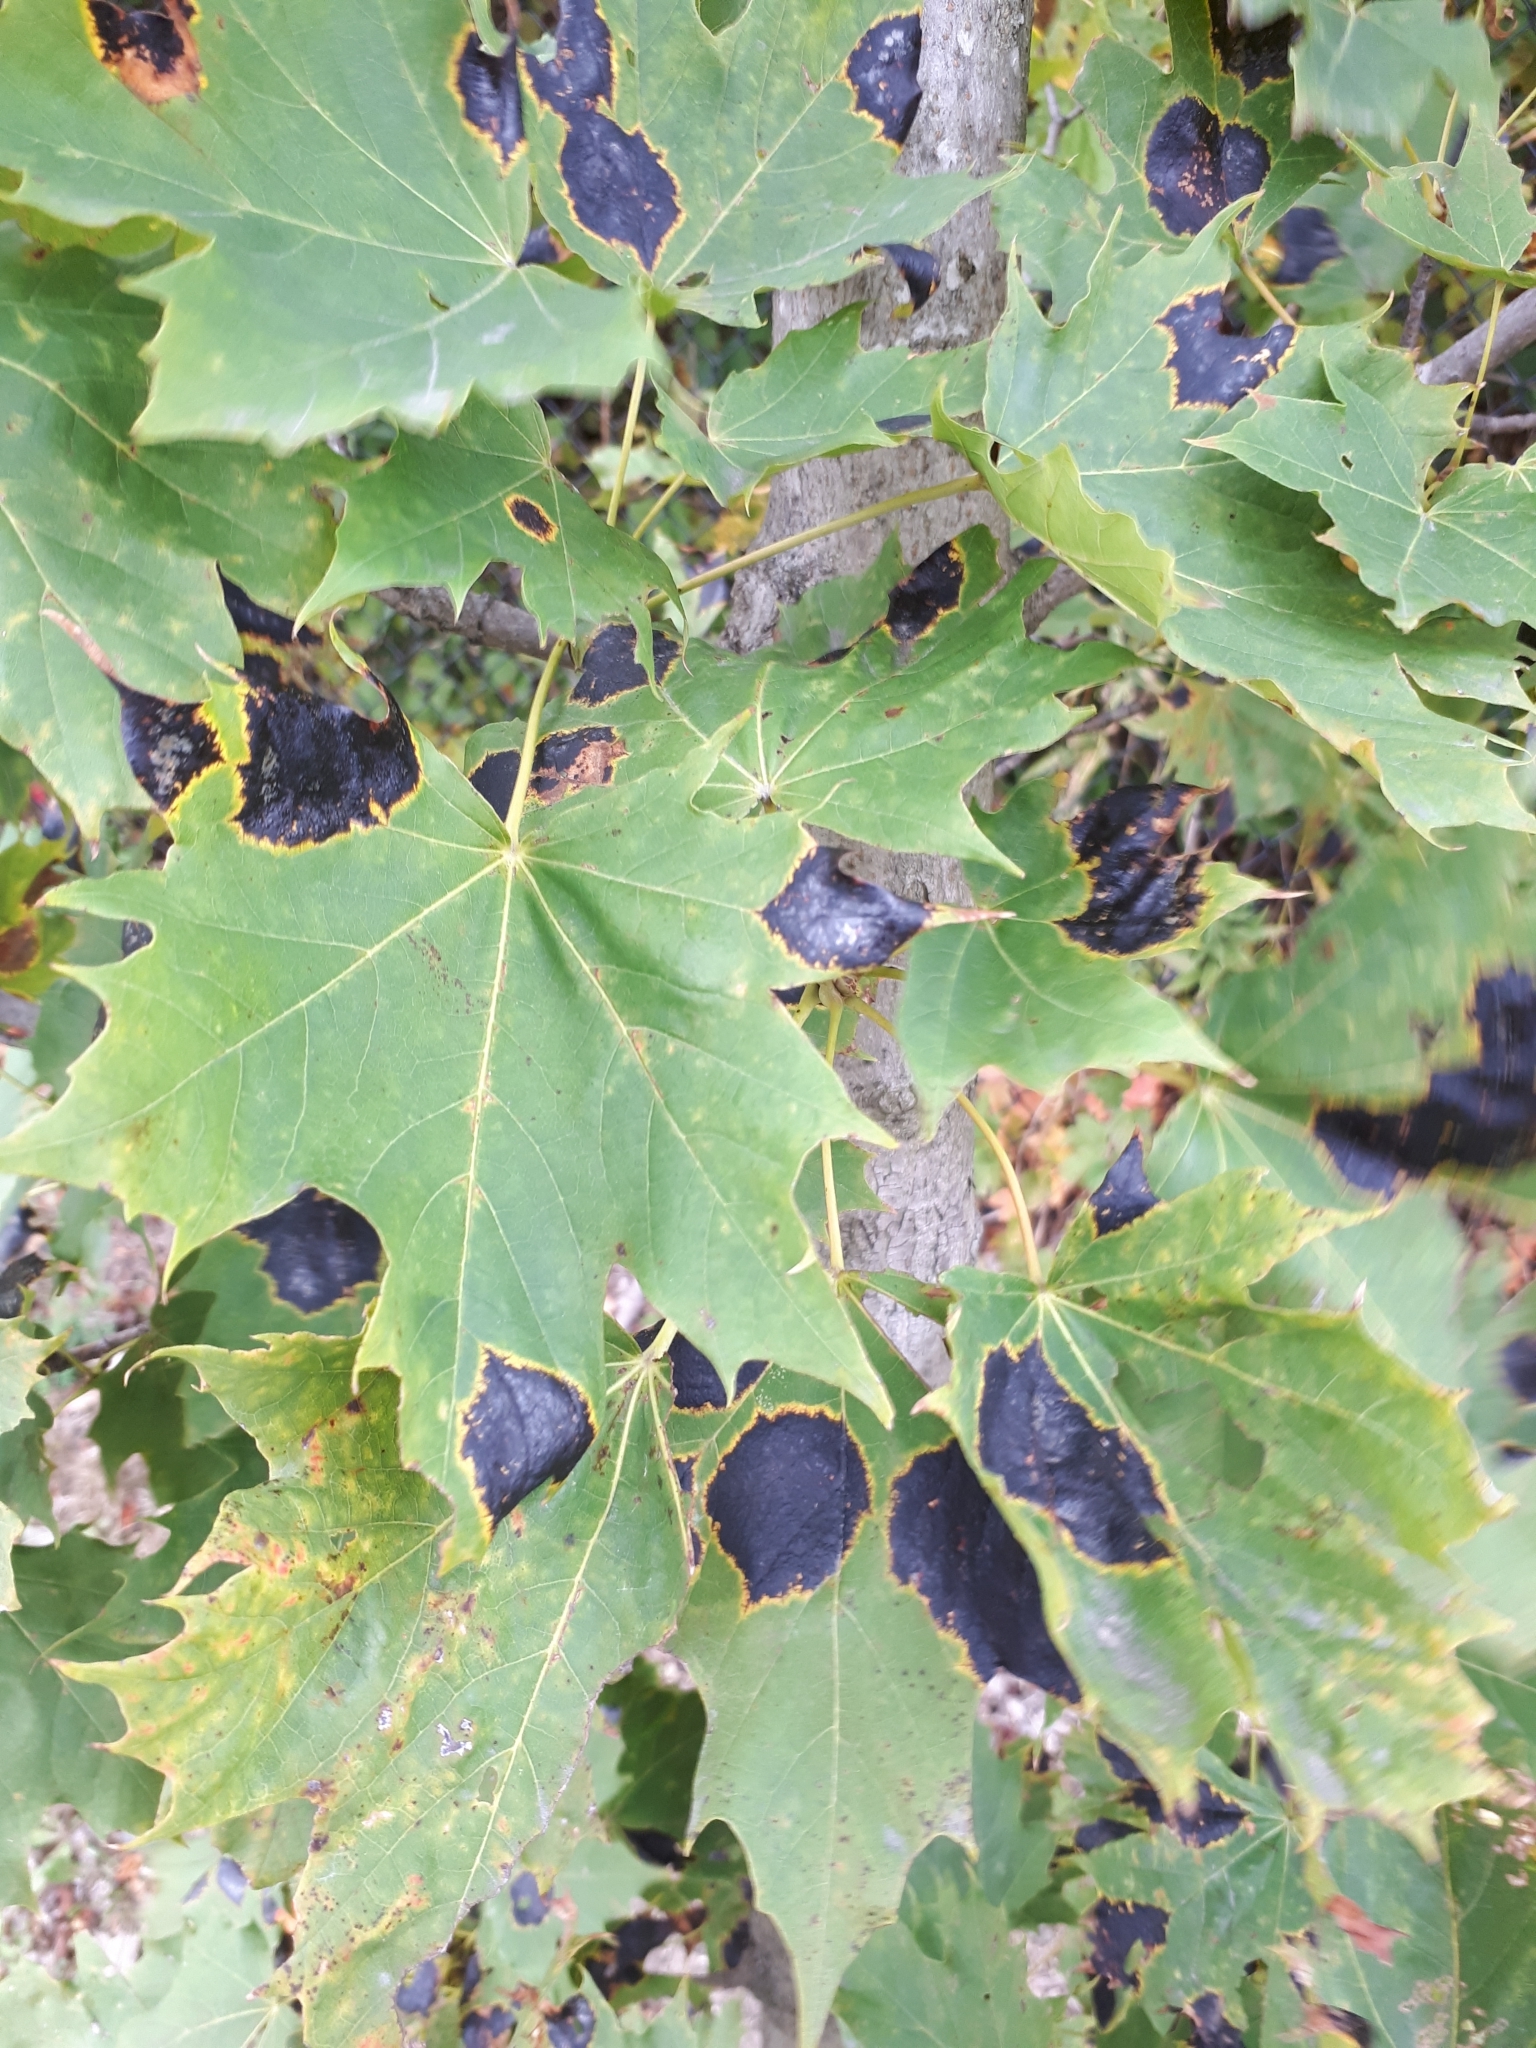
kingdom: Fungi
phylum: Ascomycota
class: Leotiomycetes
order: Rhytismatales
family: Rhytismataceae
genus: Rhytisma
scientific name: Rhytisma acerinum
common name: European tar spot
